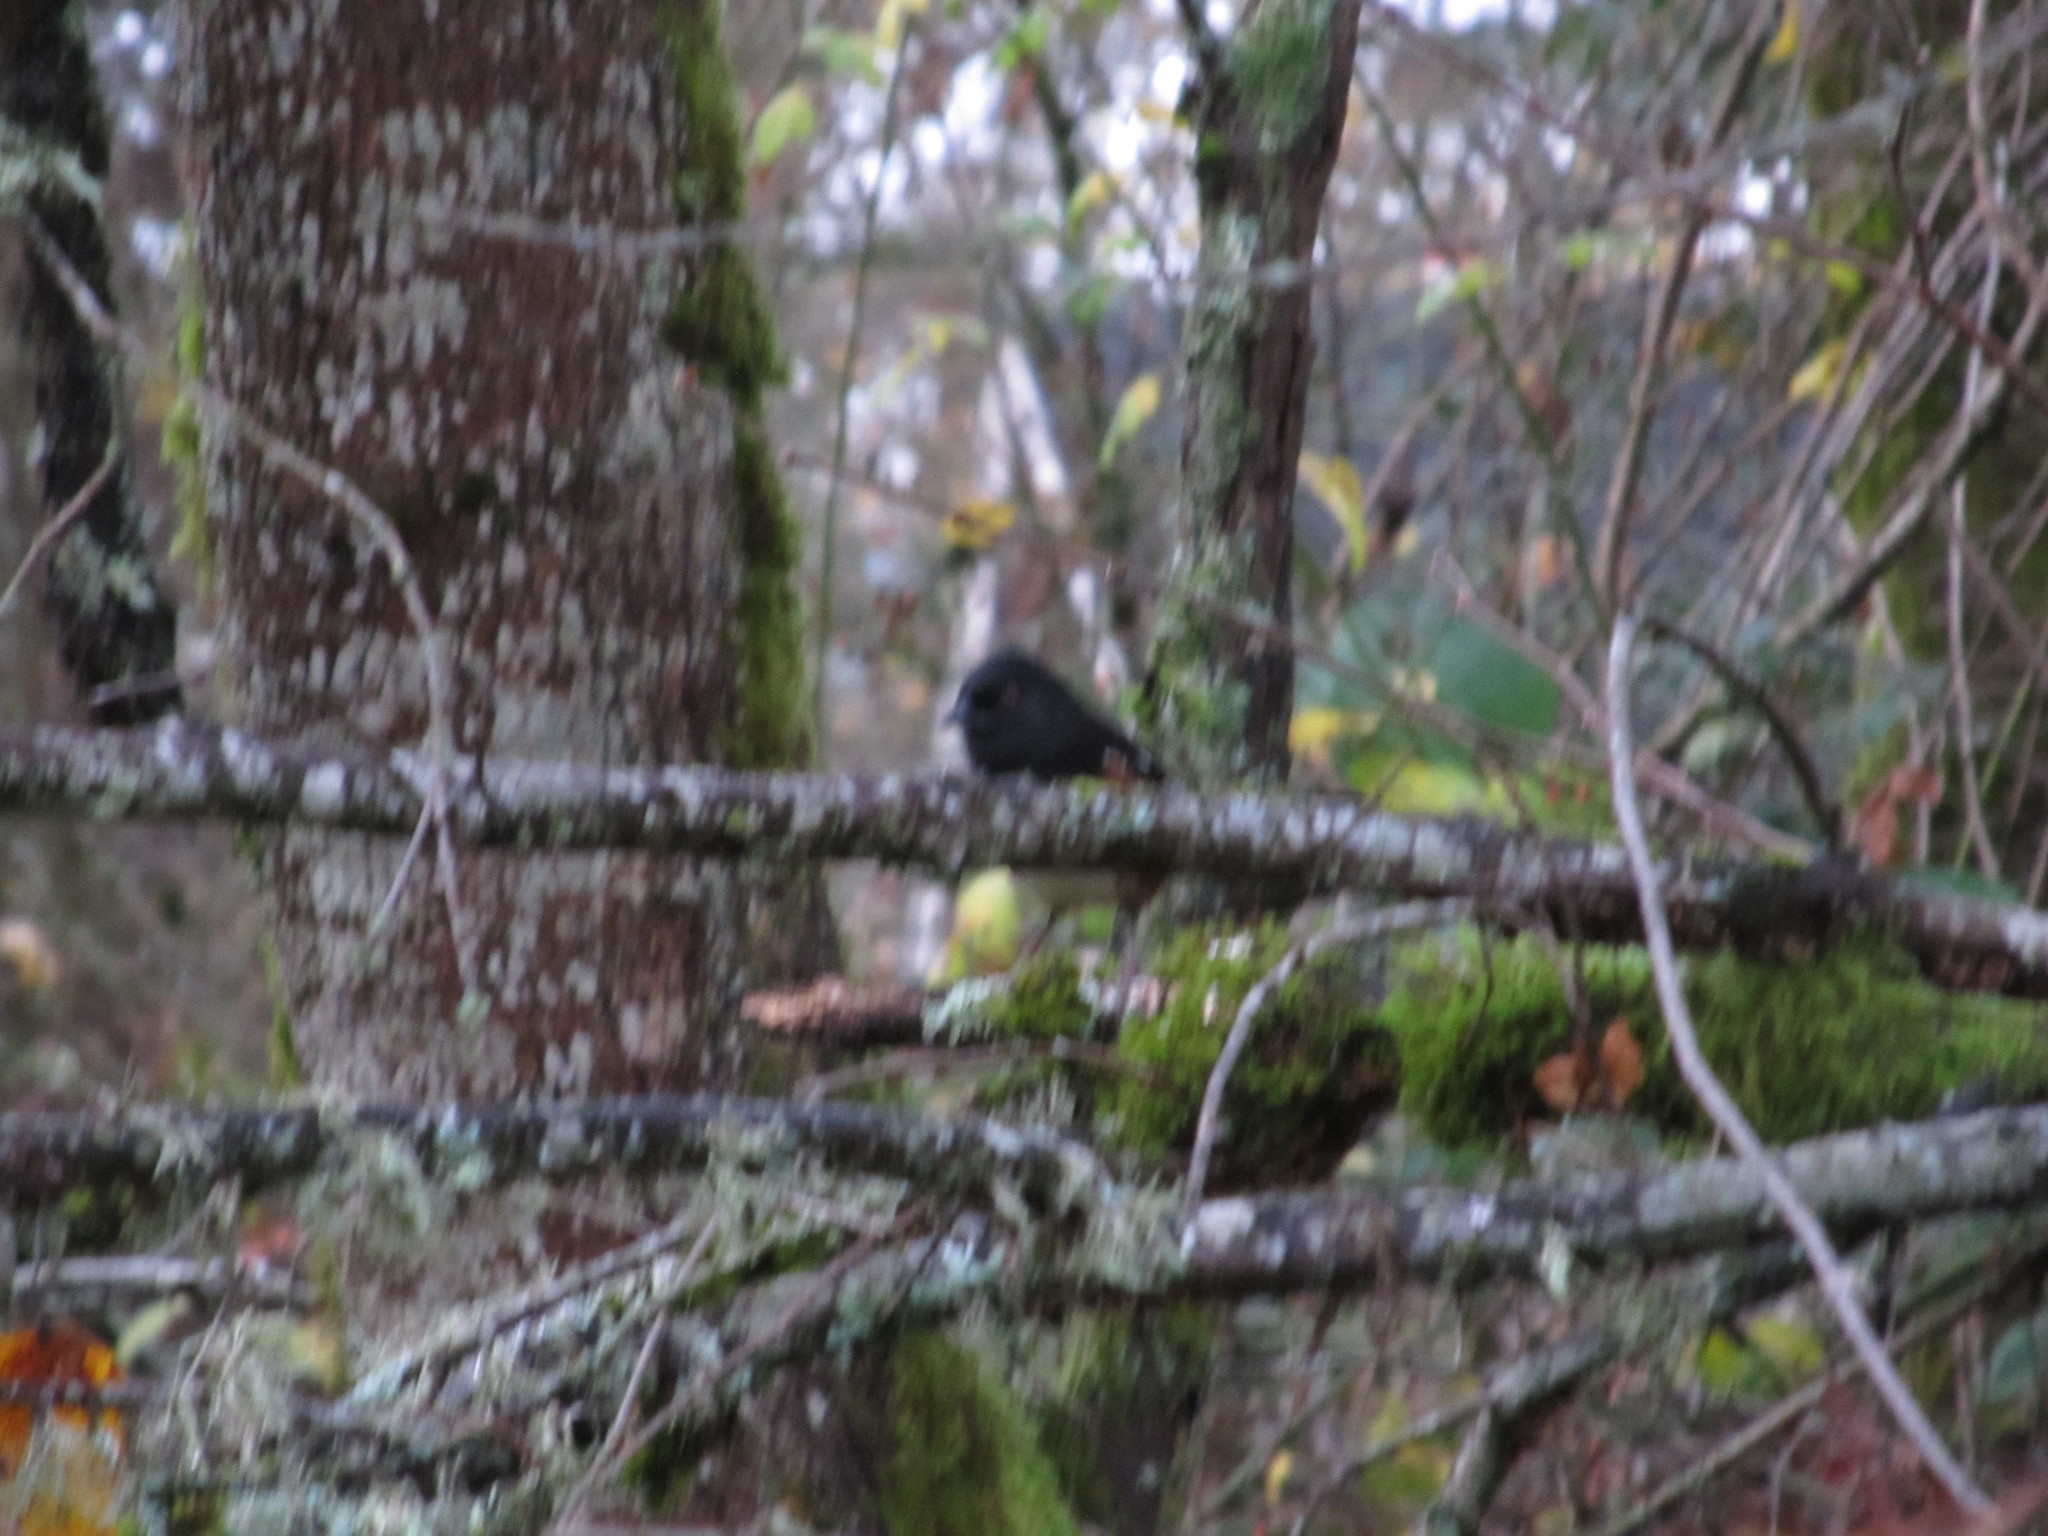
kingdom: Animalia
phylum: Chordata
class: Aves
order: Passeriformes
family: Passerellidae
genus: Pipilo
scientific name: Pipilo maculatus
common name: Spotted towhee
